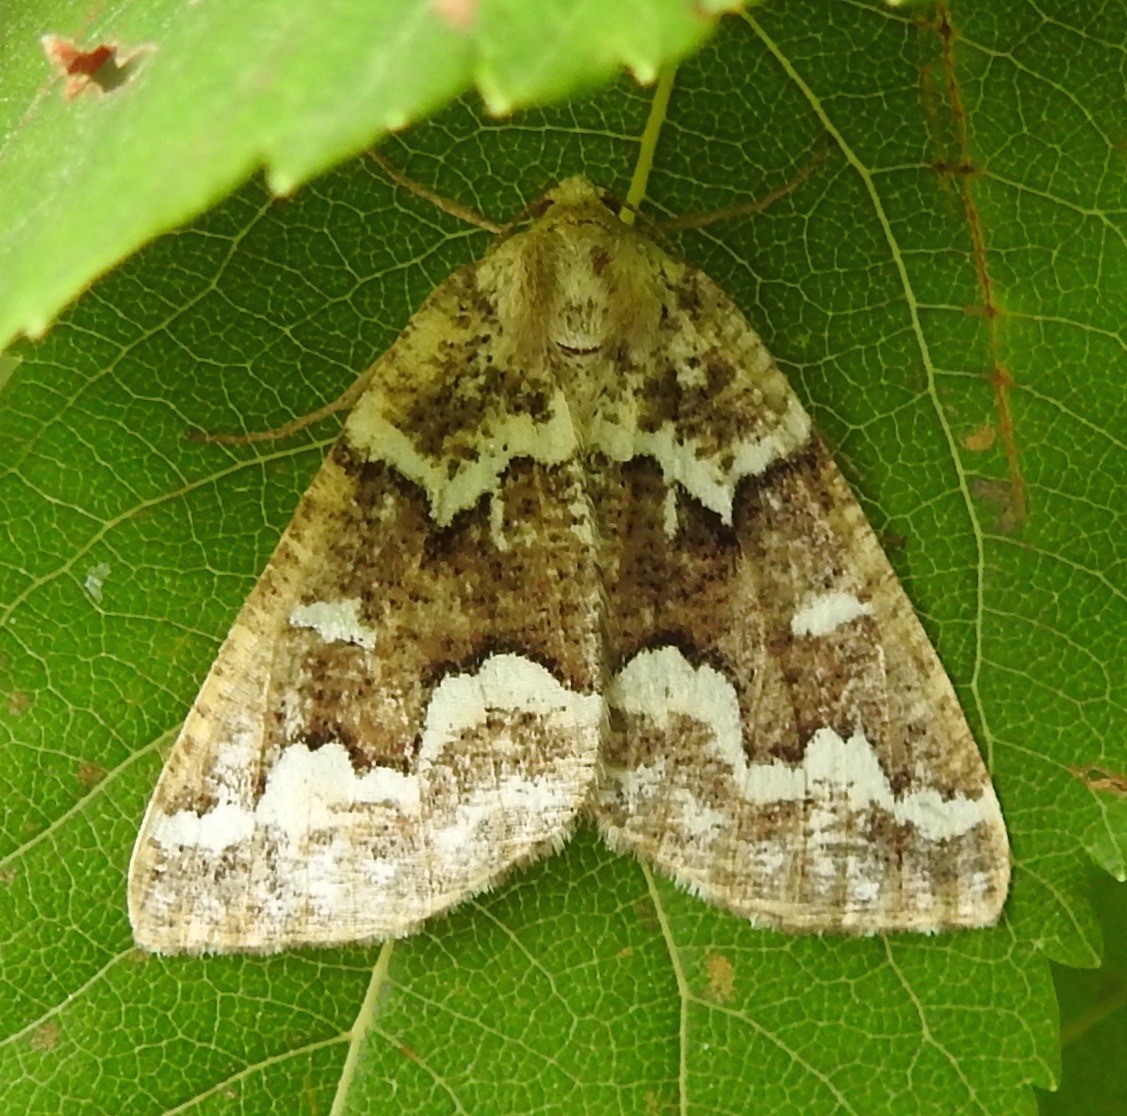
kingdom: Animalia
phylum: Arthropoda
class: Insecta
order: Lepidoptera
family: Geometridae
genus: Caripeta
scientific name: Caripeta divisata
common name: Gray spruce looper
